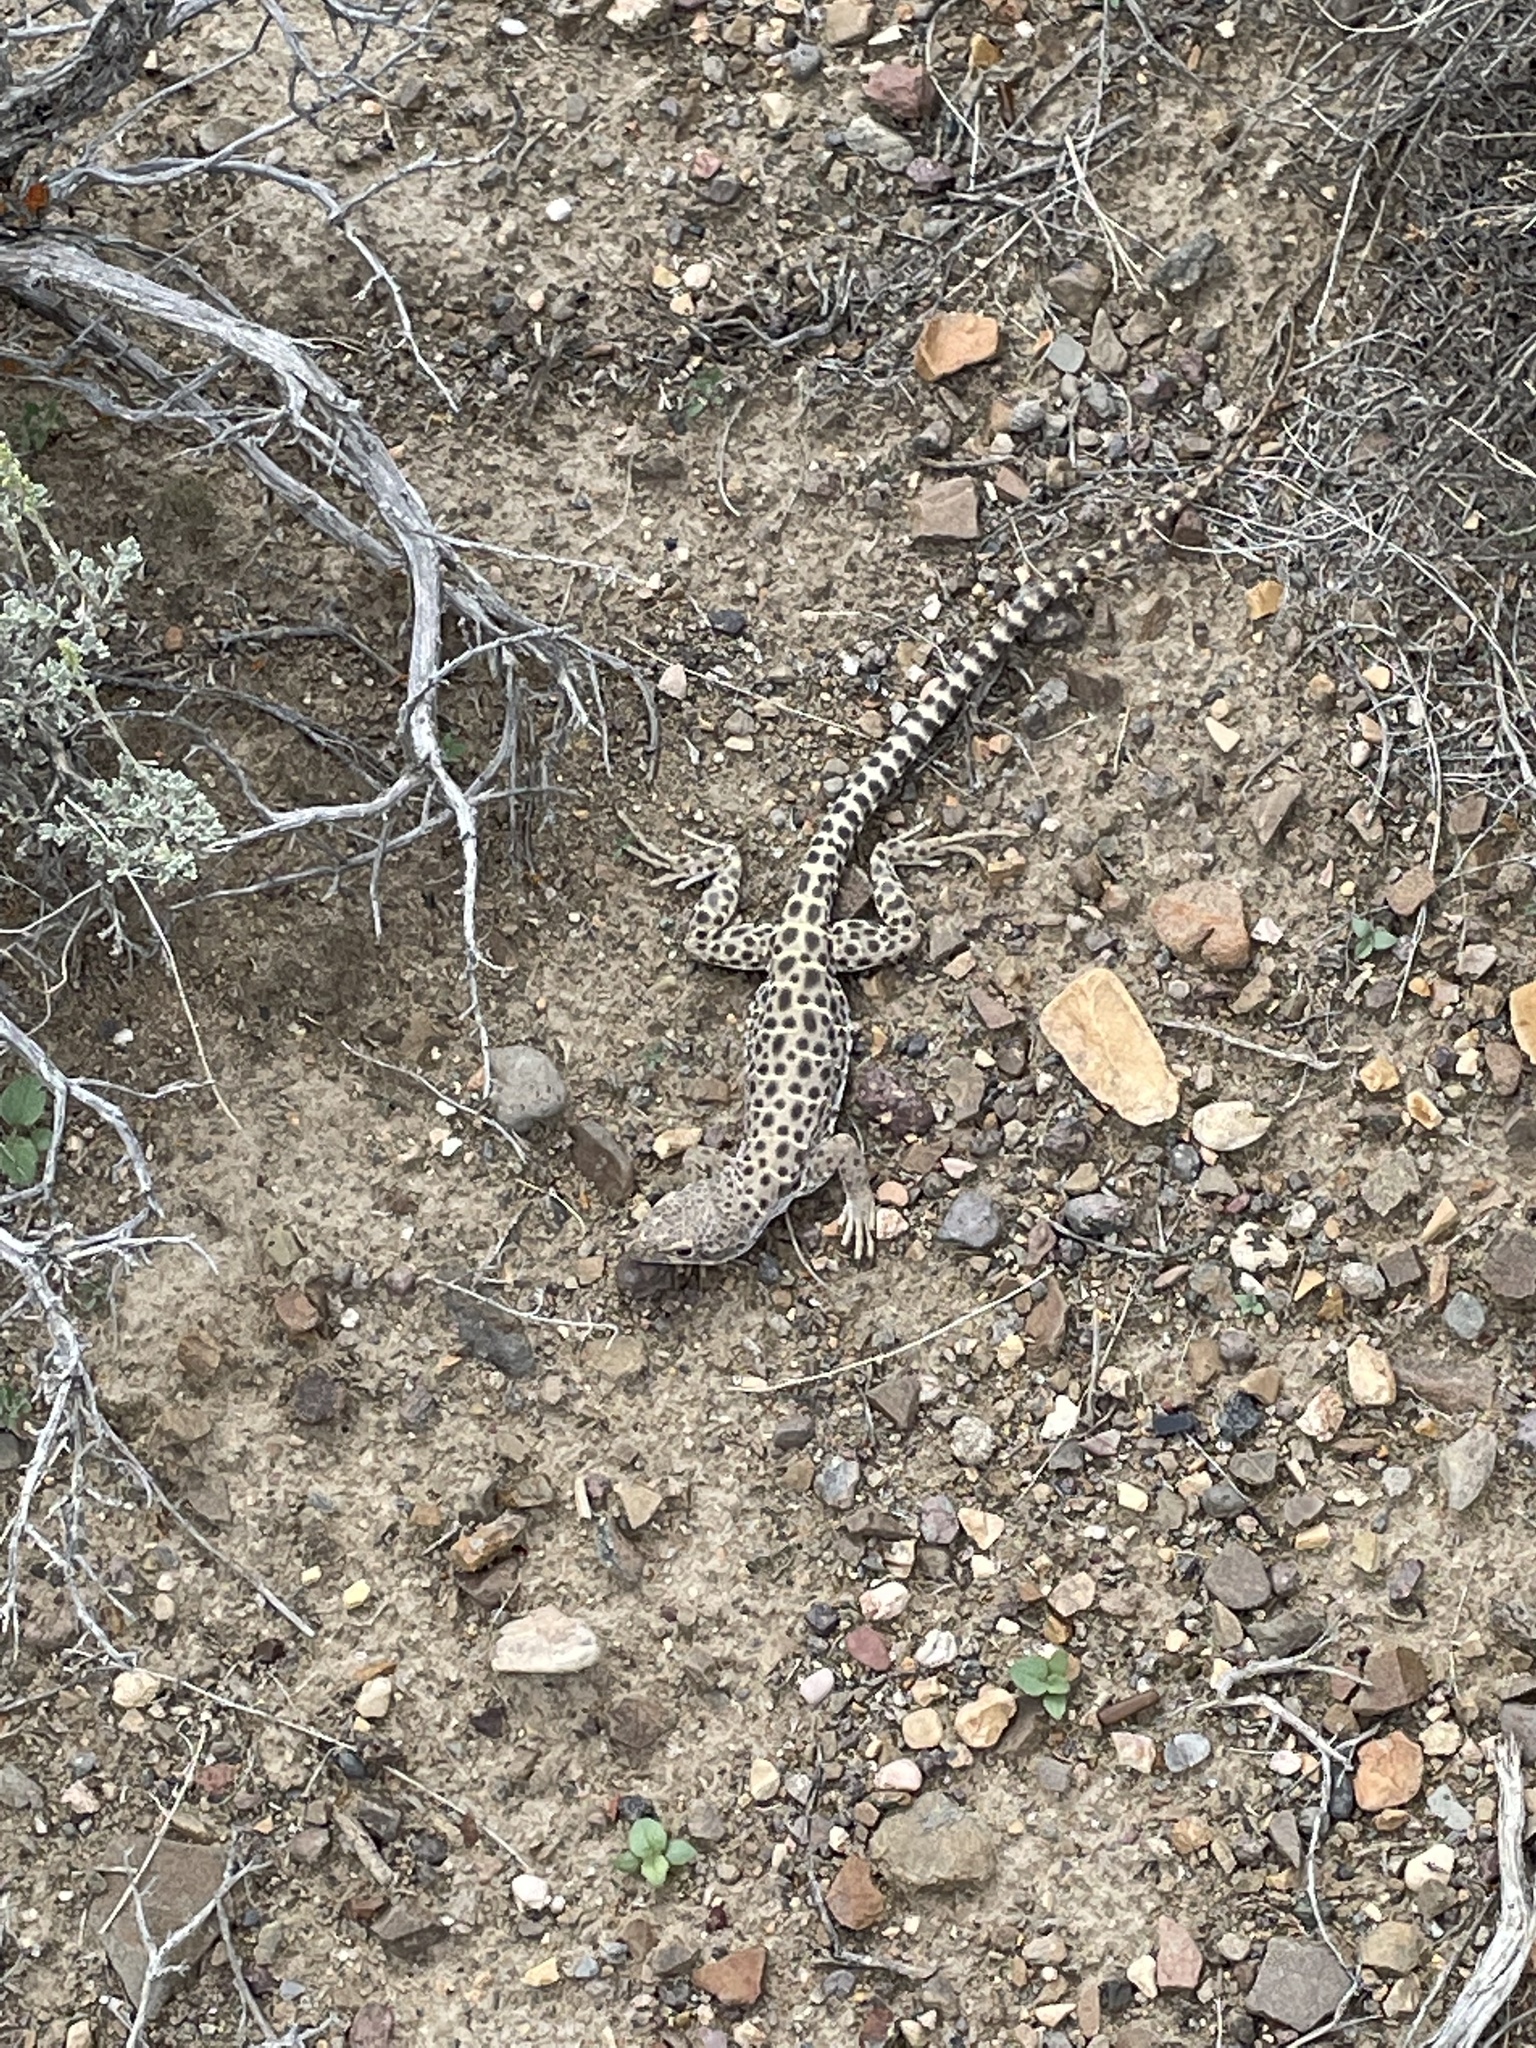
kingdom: Animalia
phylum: Chordata
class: Squamata
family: Crotaphytidae
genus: Gambelia
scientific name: Gambelia wislizenii
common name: Longnose leopard lizard
